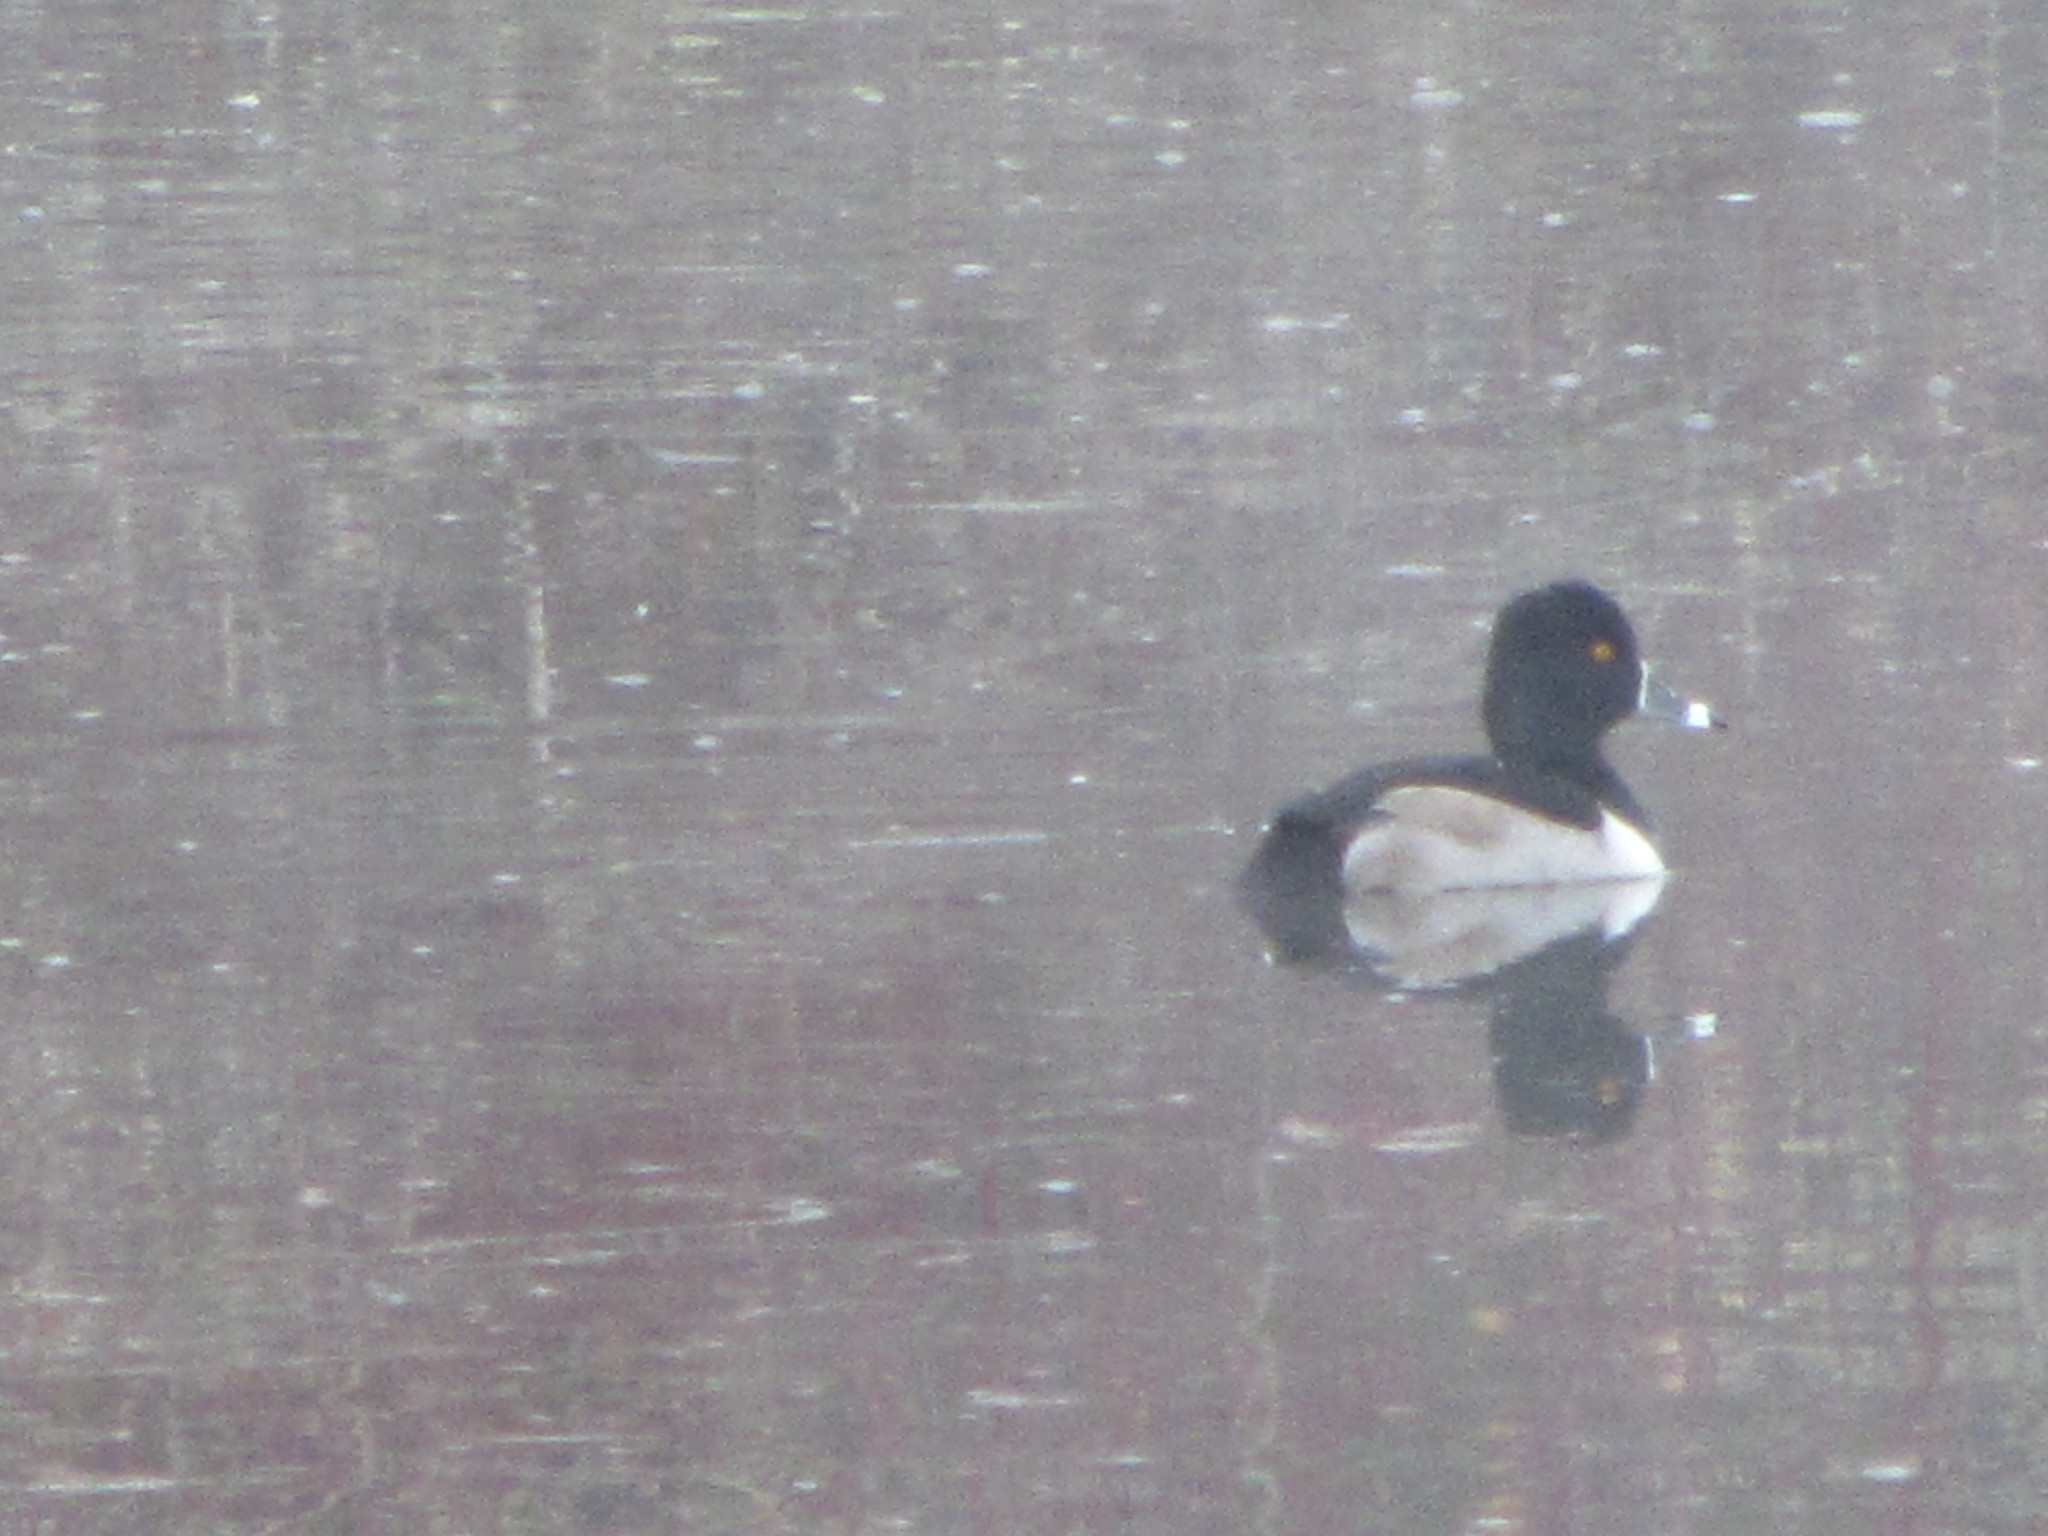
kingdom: Animalia
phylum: Chordata
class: Aves
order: Anseriformes
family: Anatidae
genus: Aythya
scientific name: Aythya collaris
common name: Ring-necked duck
